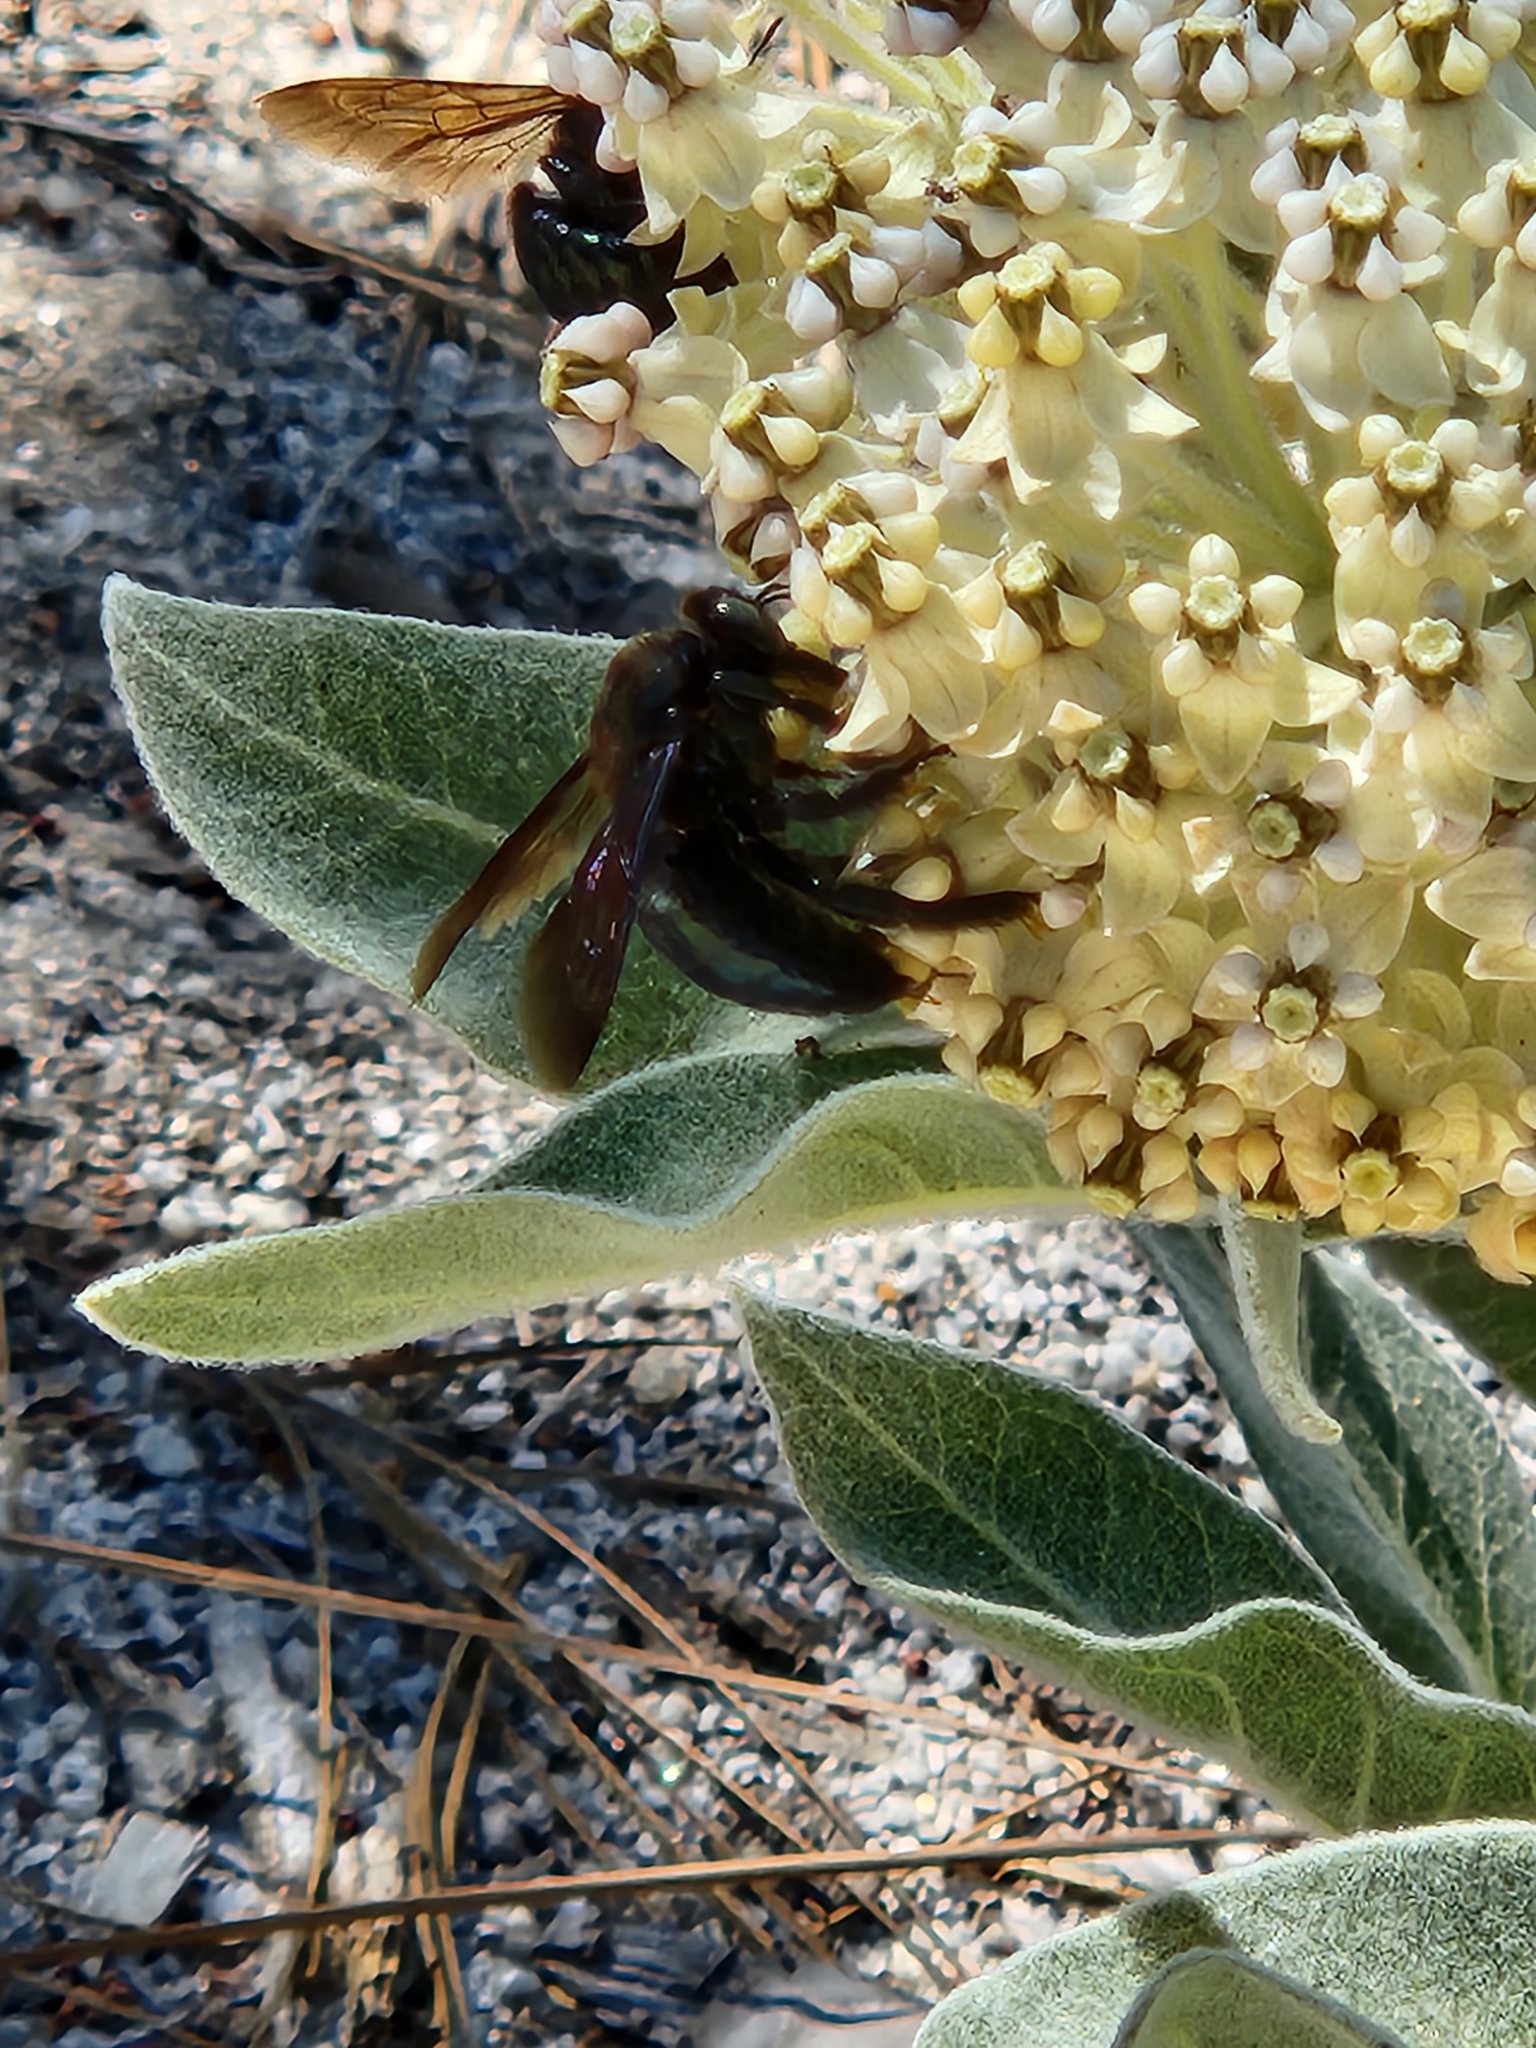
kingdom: Animalia
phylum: Arthropoda
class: Insecta
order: Hymenoptera
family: Apidae
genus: Xylocopa
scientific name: Xylocopa californica
